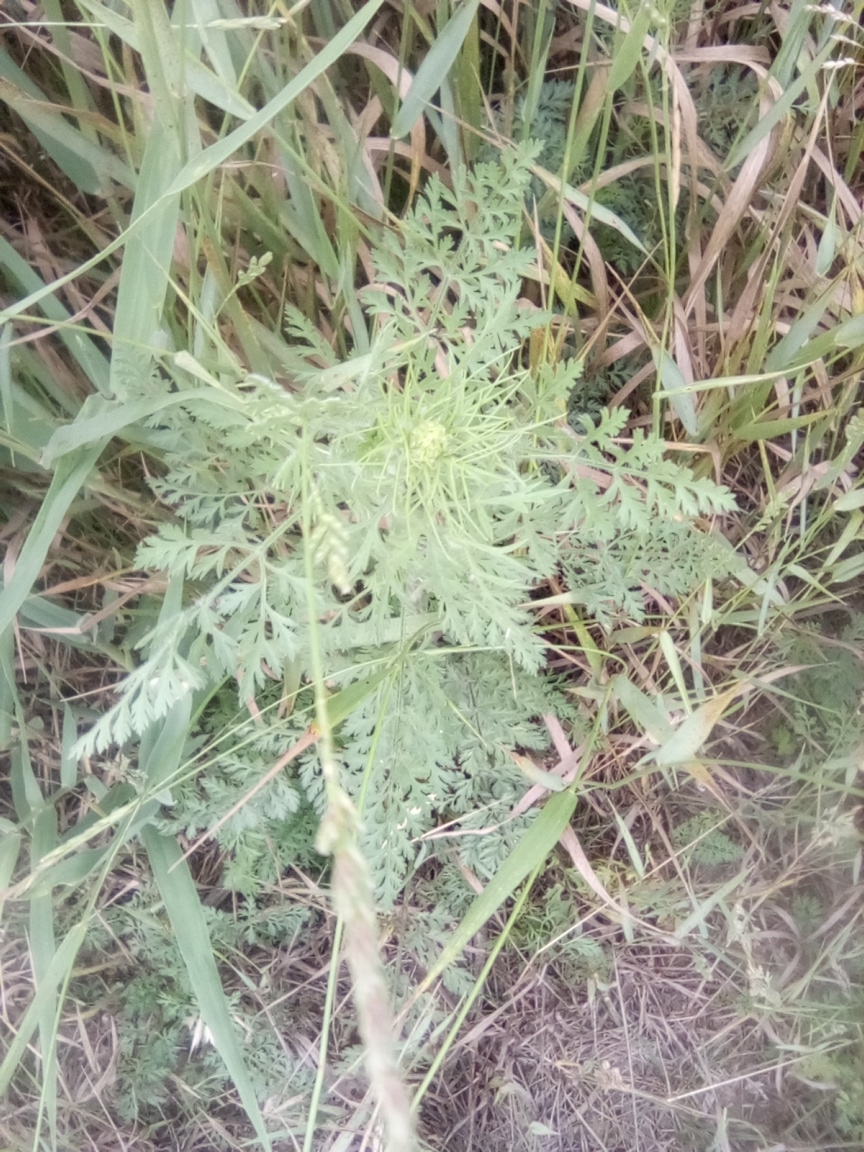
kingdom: Plantae
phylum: Tracheophyta
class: Magnoliopsida
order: Brassicales
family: Brassicaceae
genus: Descurainia
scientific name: Descurainia sophia
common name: Flixweed
